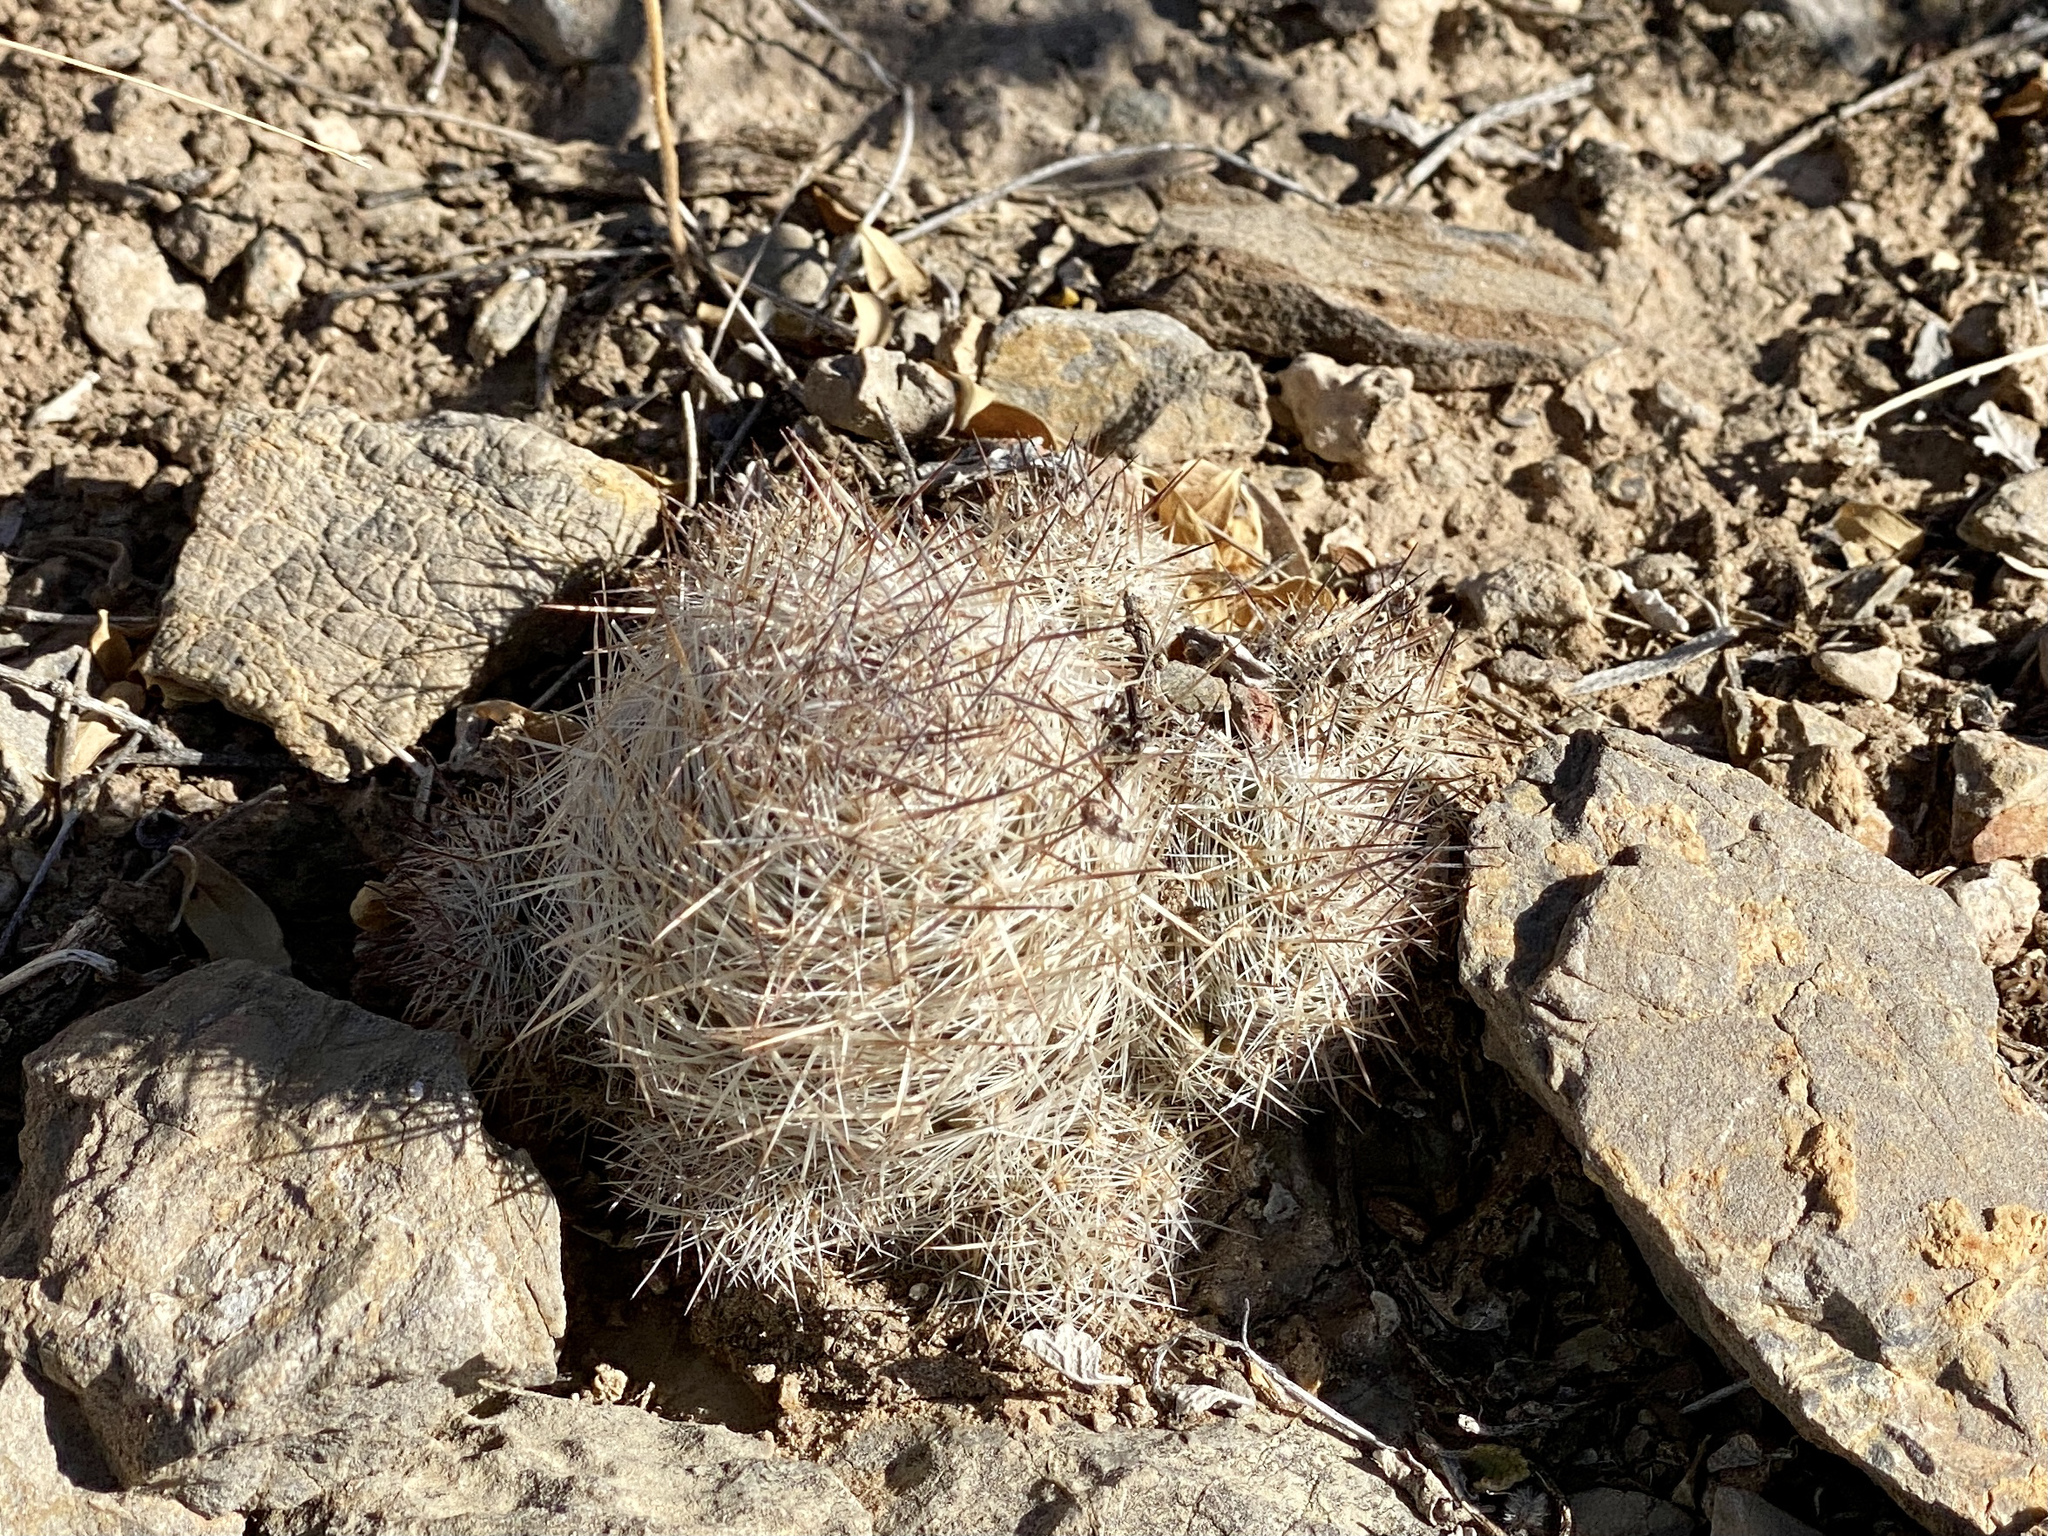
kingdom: Plantae
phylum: Tracheophyta
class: Magnoliopsida
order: Caryophyllales
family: Cactaceae
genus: Pelecyphora
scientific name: Pelecyphora tuberculosa
